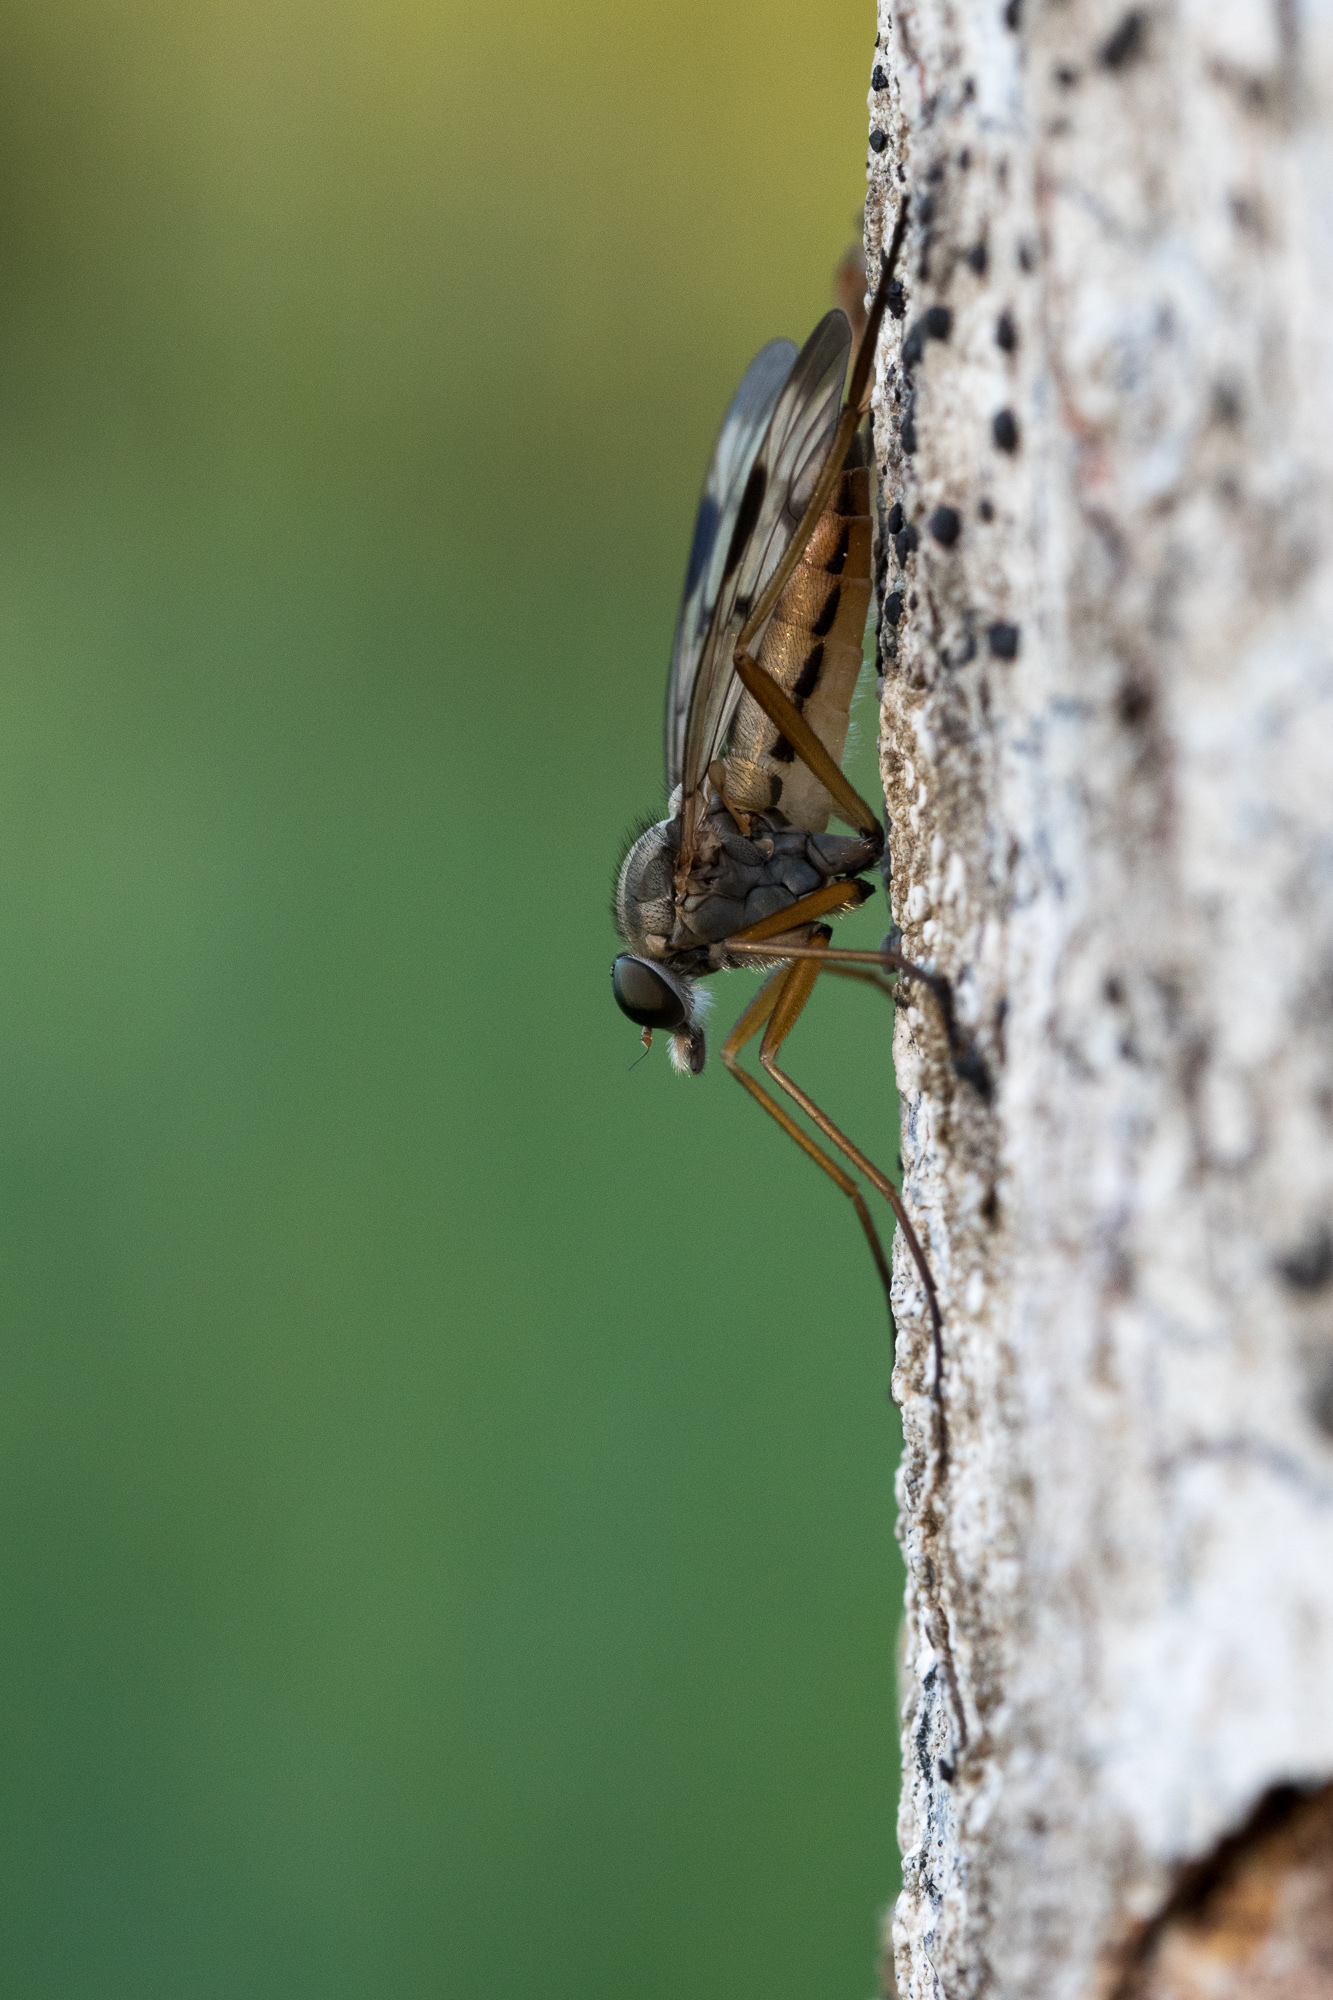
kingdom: Animalia
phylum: Arthropoda
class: Insecta
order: Diptera
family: Rhagionidae
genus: Rhagio
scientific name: Rhagio scolopacea
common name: Downlooker snipefly
